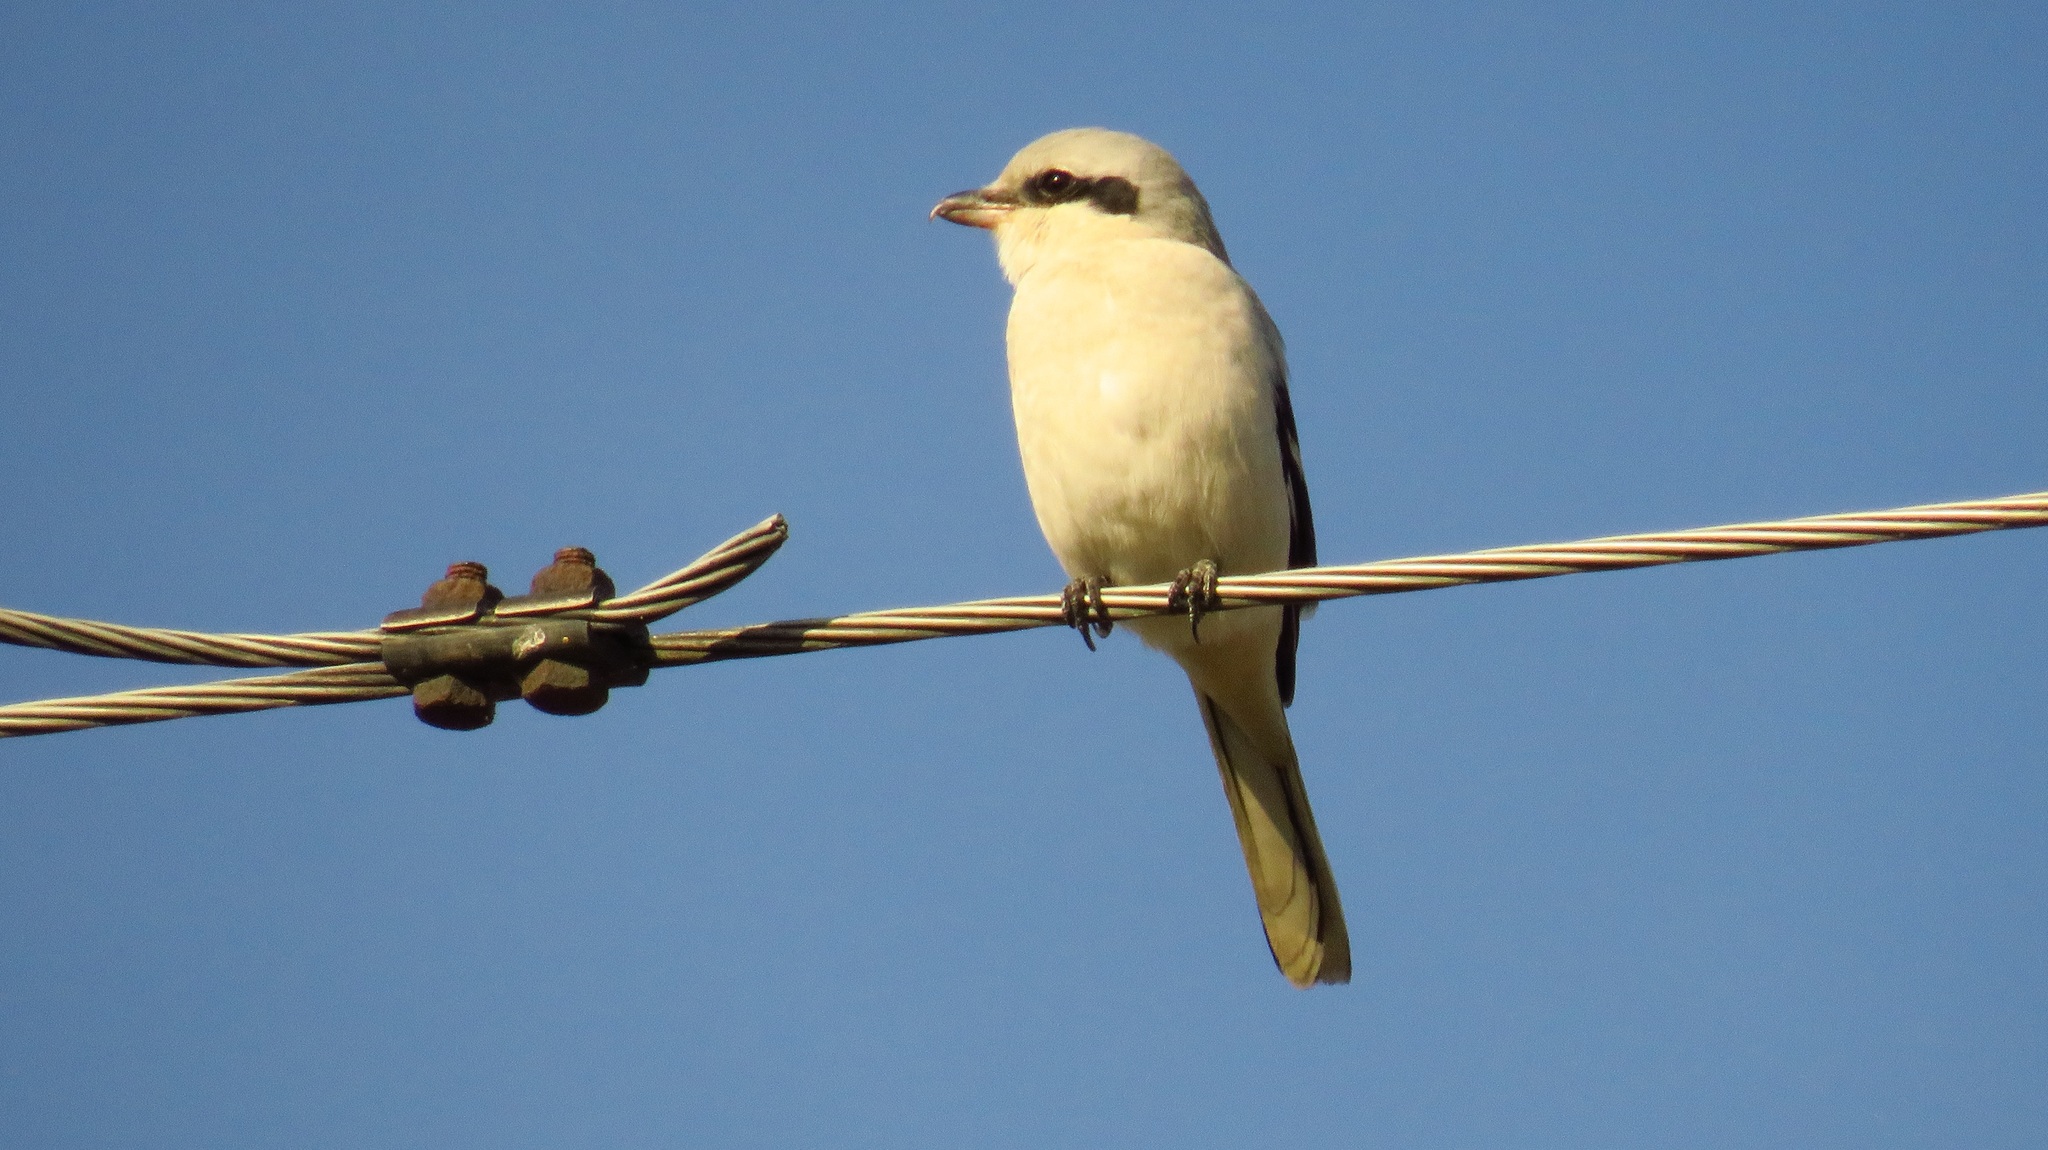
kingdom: Animalia
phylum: Chordata
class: Aves
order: Passeriformes
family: Laniidae
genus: Lanius
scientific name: Lanius excubitor
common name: Great grey shrike
